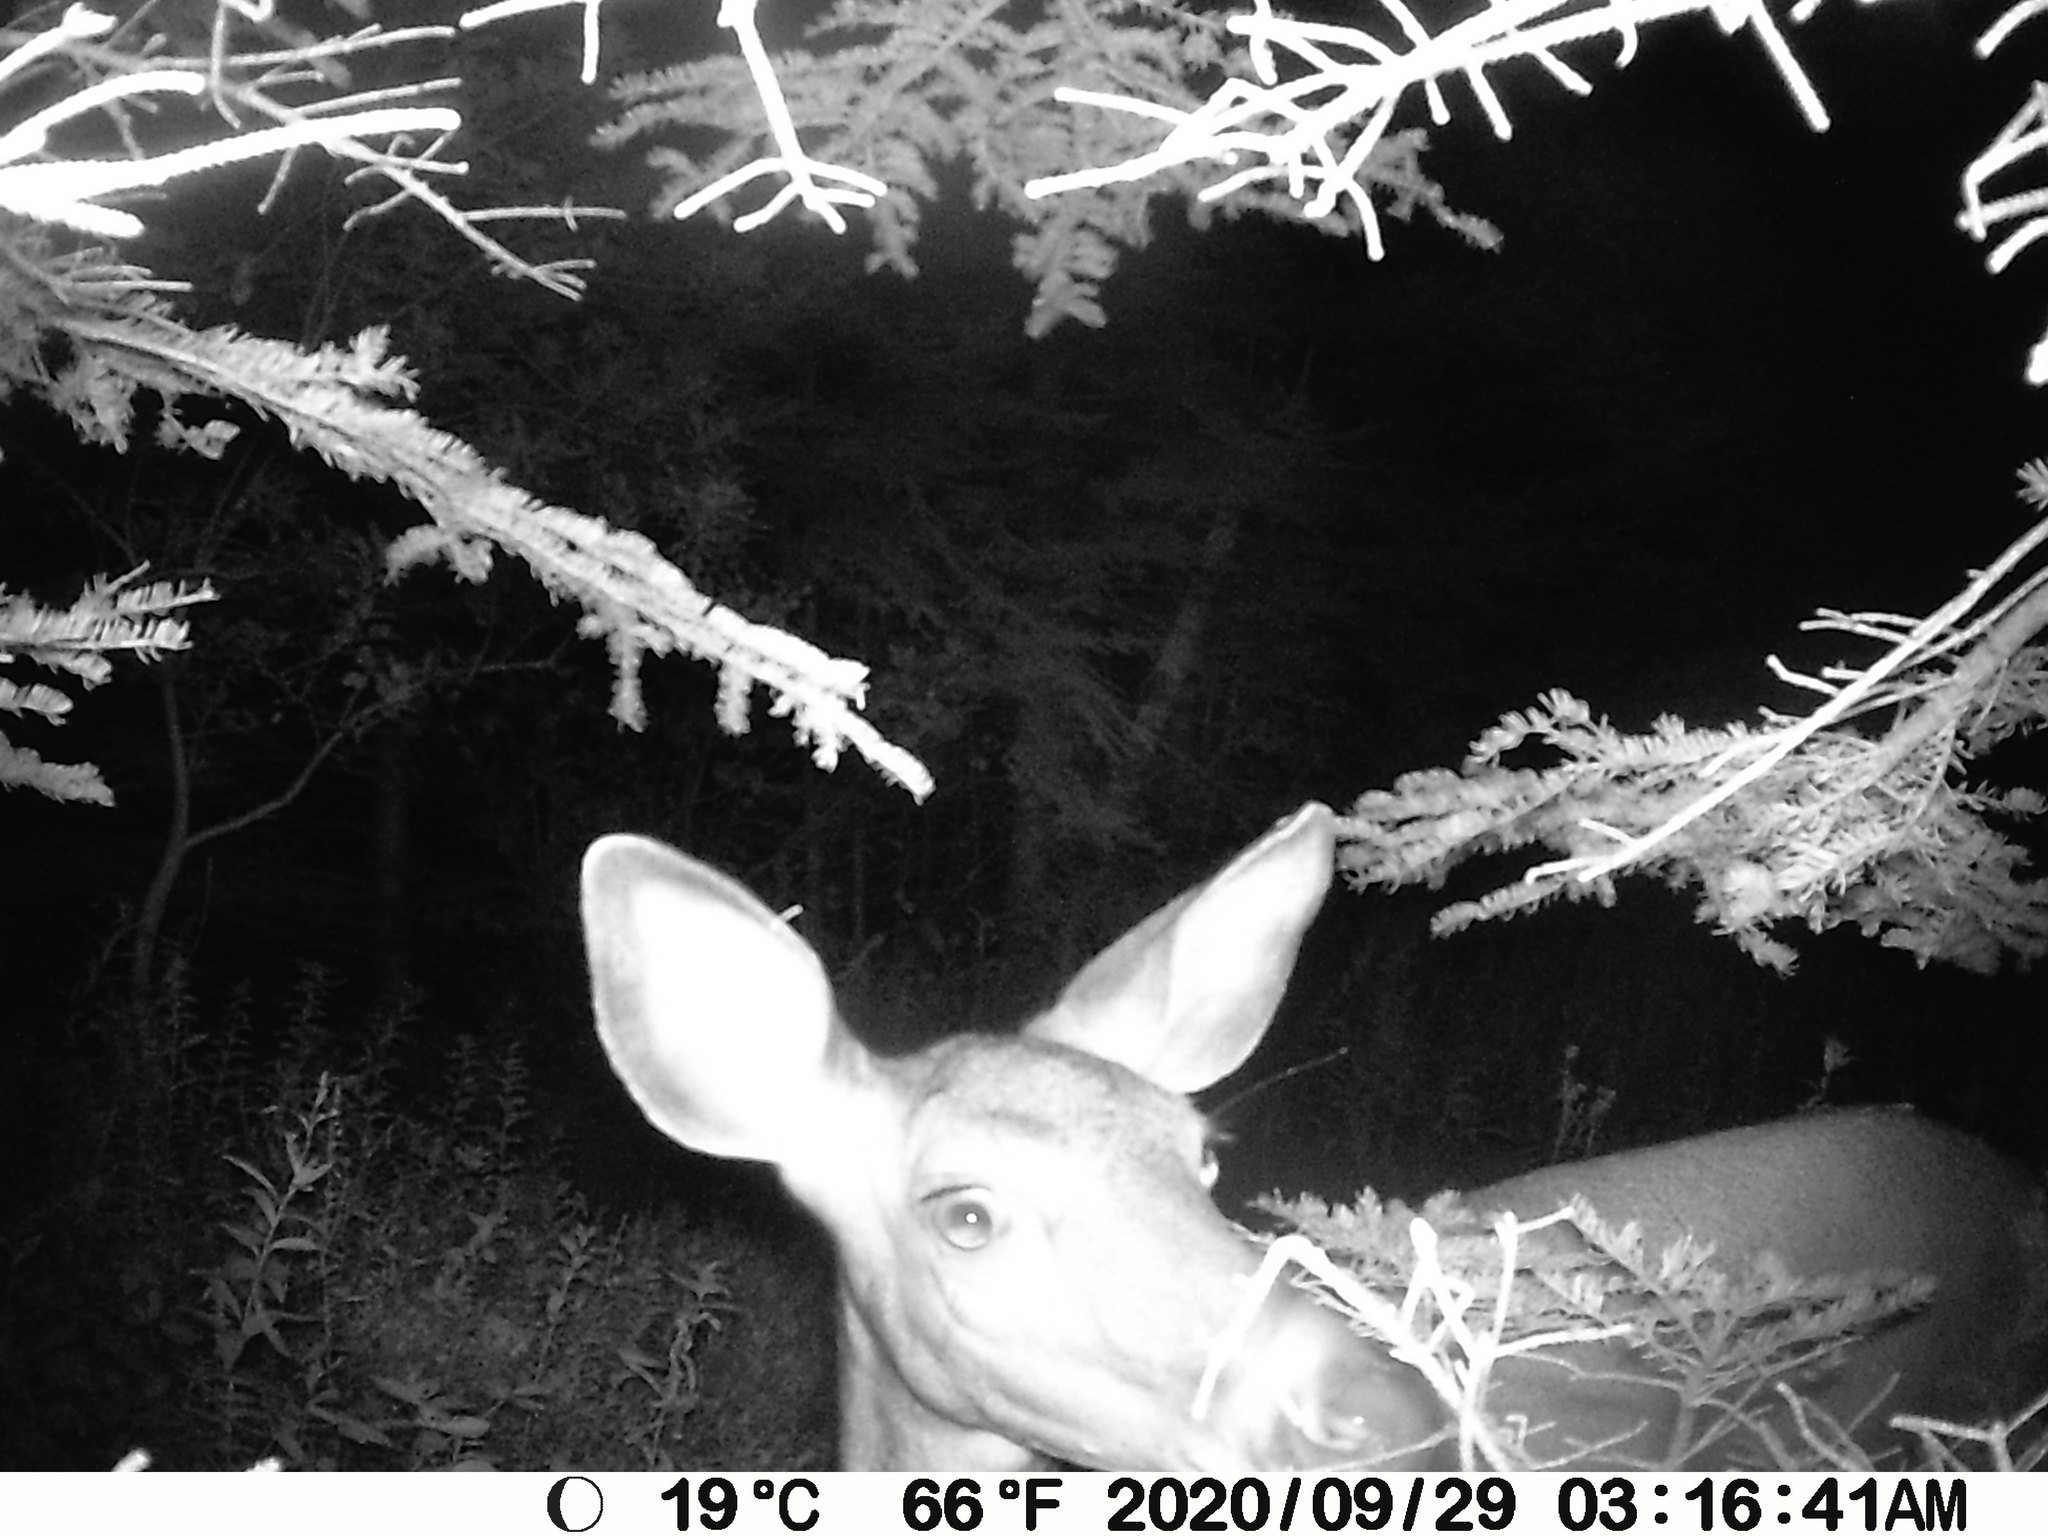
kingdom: Animalia
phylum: Chordata
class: Mammalia
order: Artiodactyla
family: Cervidae
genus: Odocoileus
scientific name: Odocoileus virginianus
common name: White-tailed deer
